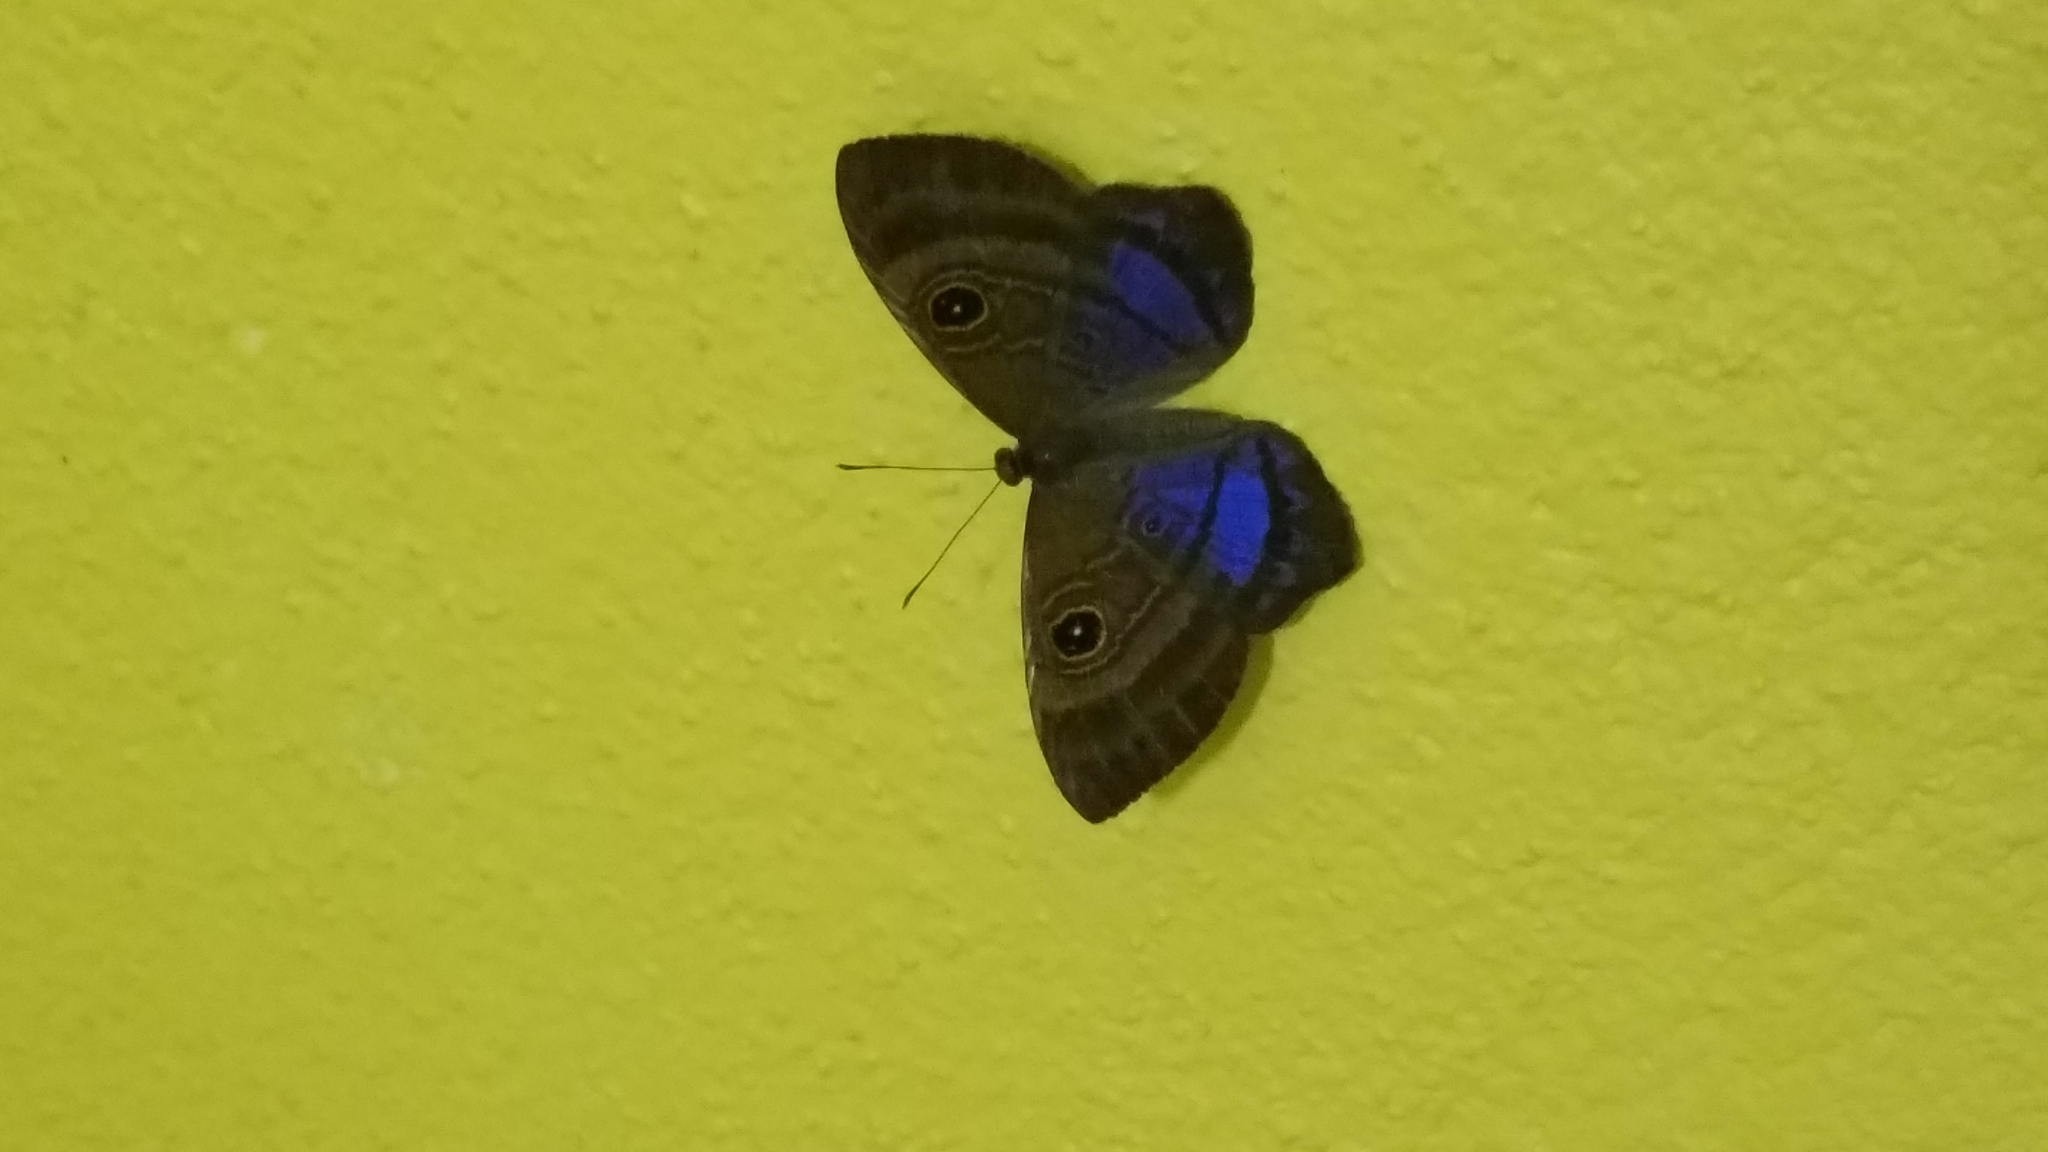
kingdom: Animalia
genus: Mesosemia
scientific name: Mesosemia
